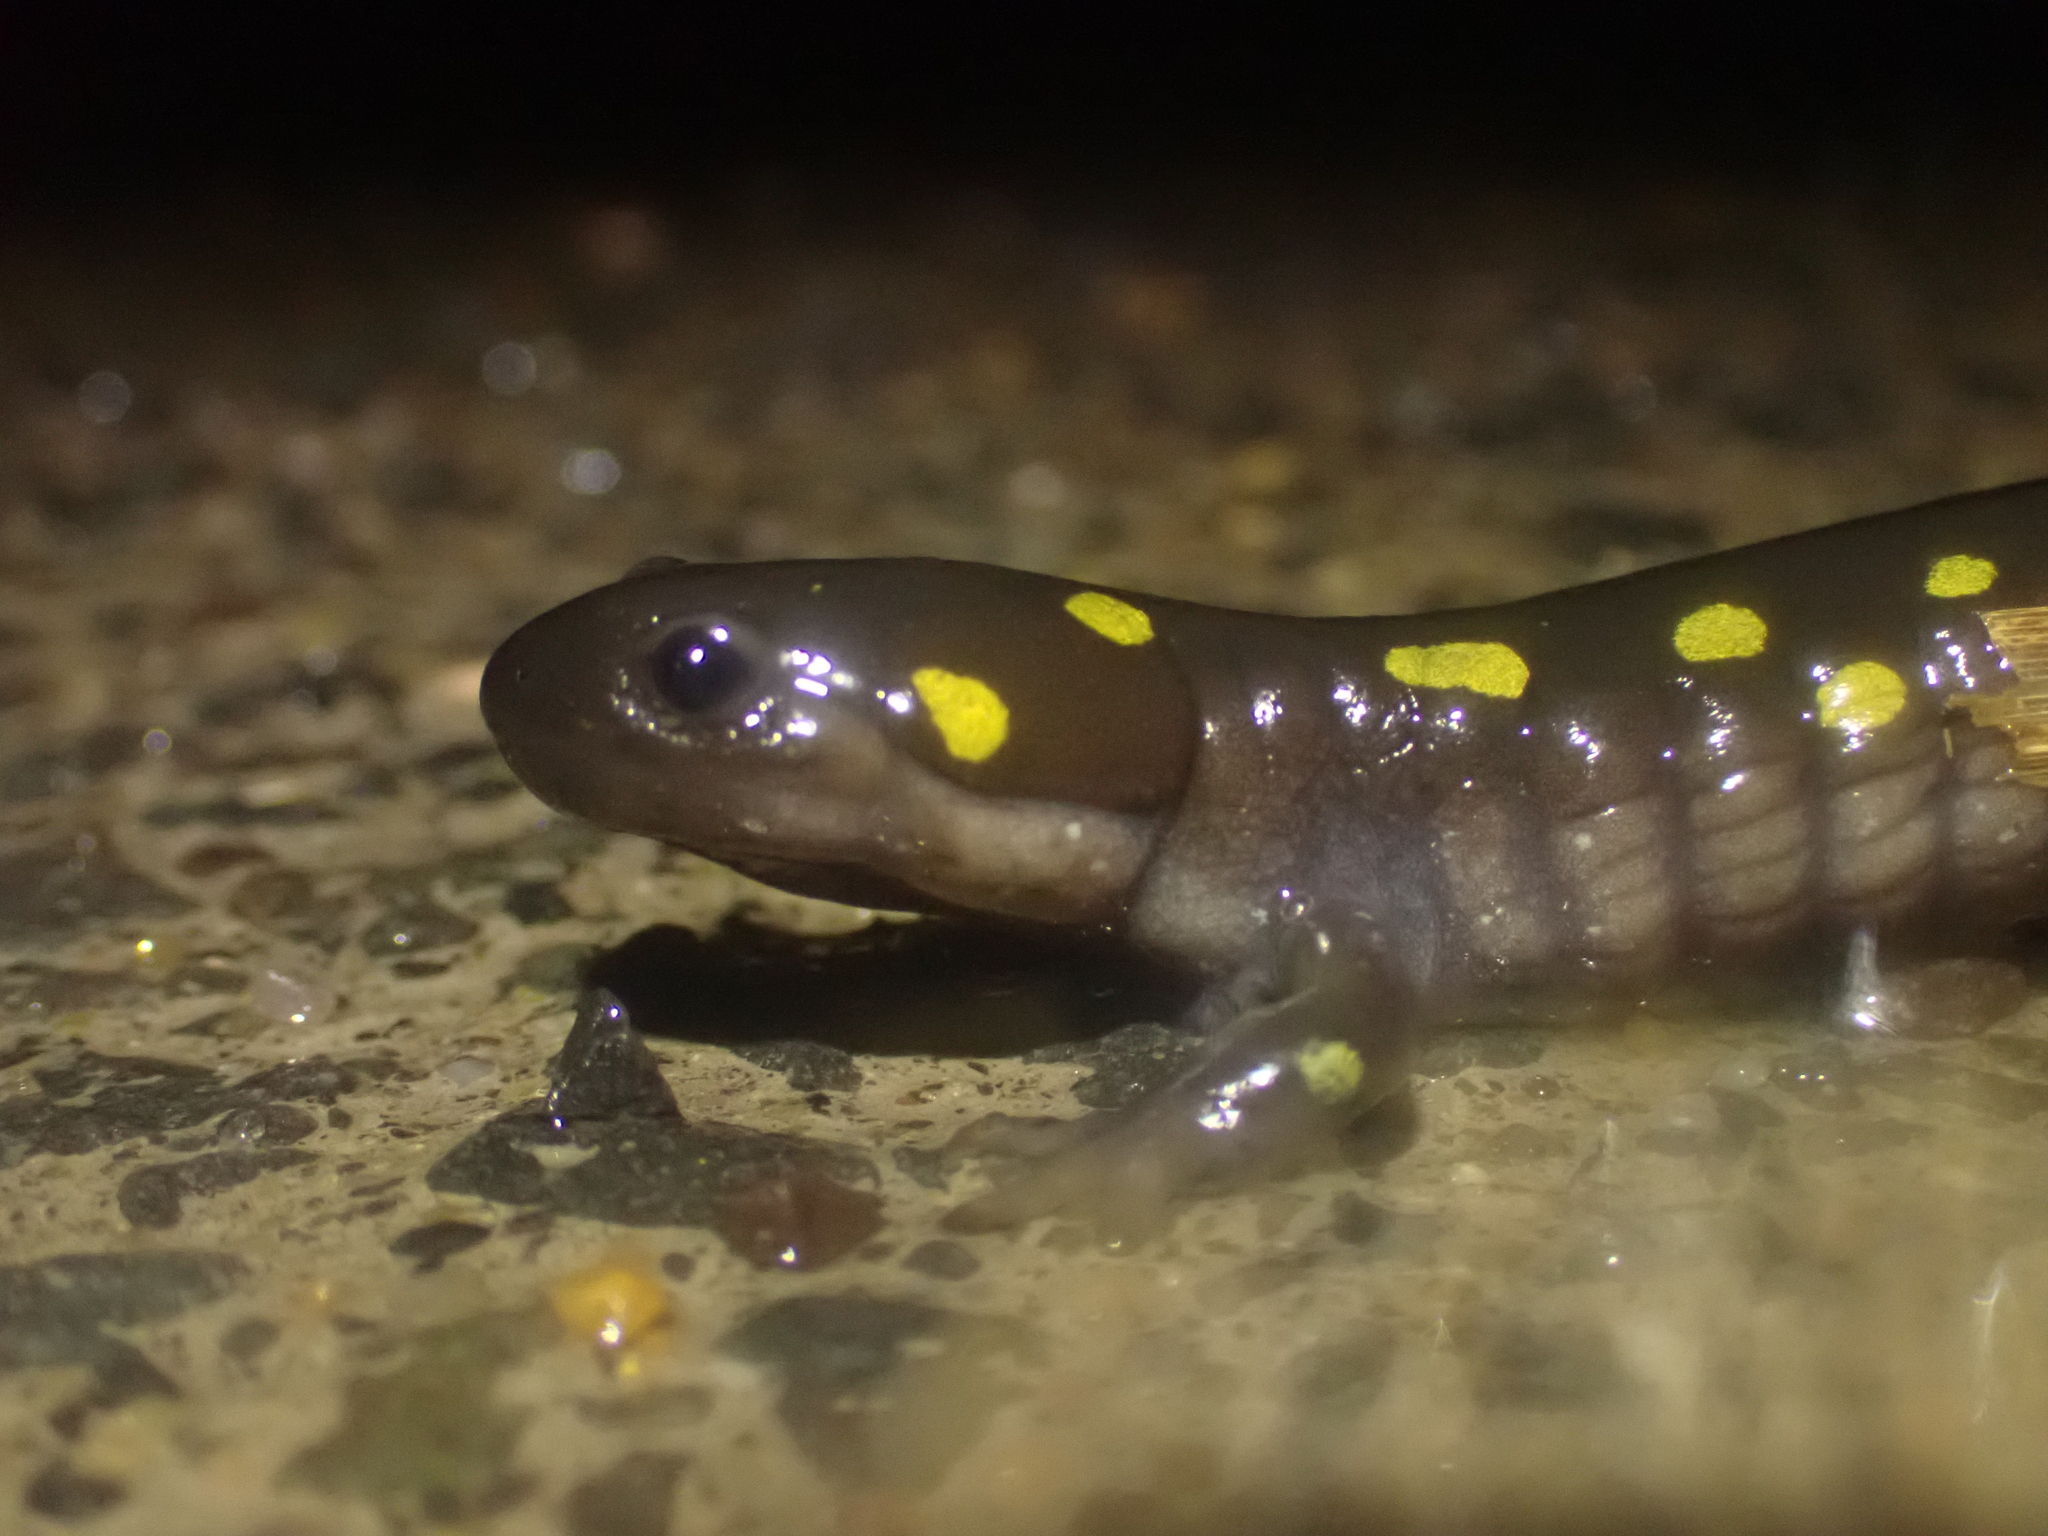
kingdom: Animalia
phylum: Chordata
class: Amphibia
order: Caudata
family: Ambystomatidae
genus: Ambystoma
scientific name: Ambystoma maculatum
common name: Spotted salamander
